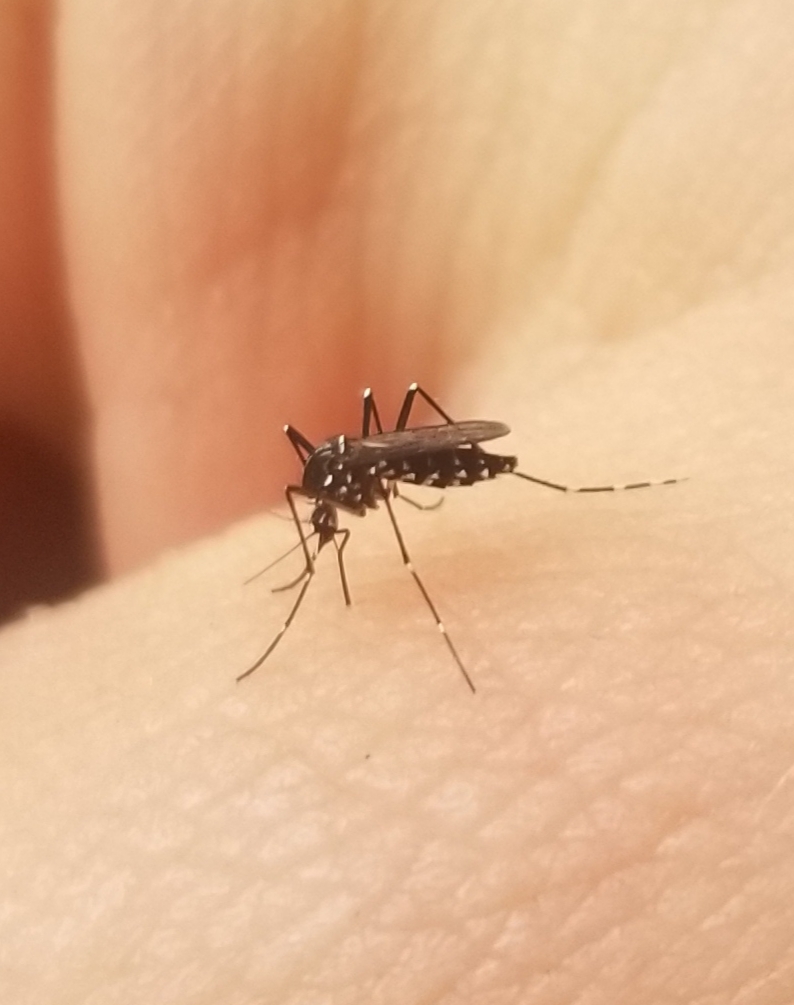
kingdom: Animalia
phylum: Arthropoda
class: Insecta
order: Diptera
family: Culicidae
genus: Aedes
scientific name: Aedes albopictus
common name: Tiger mosquito
